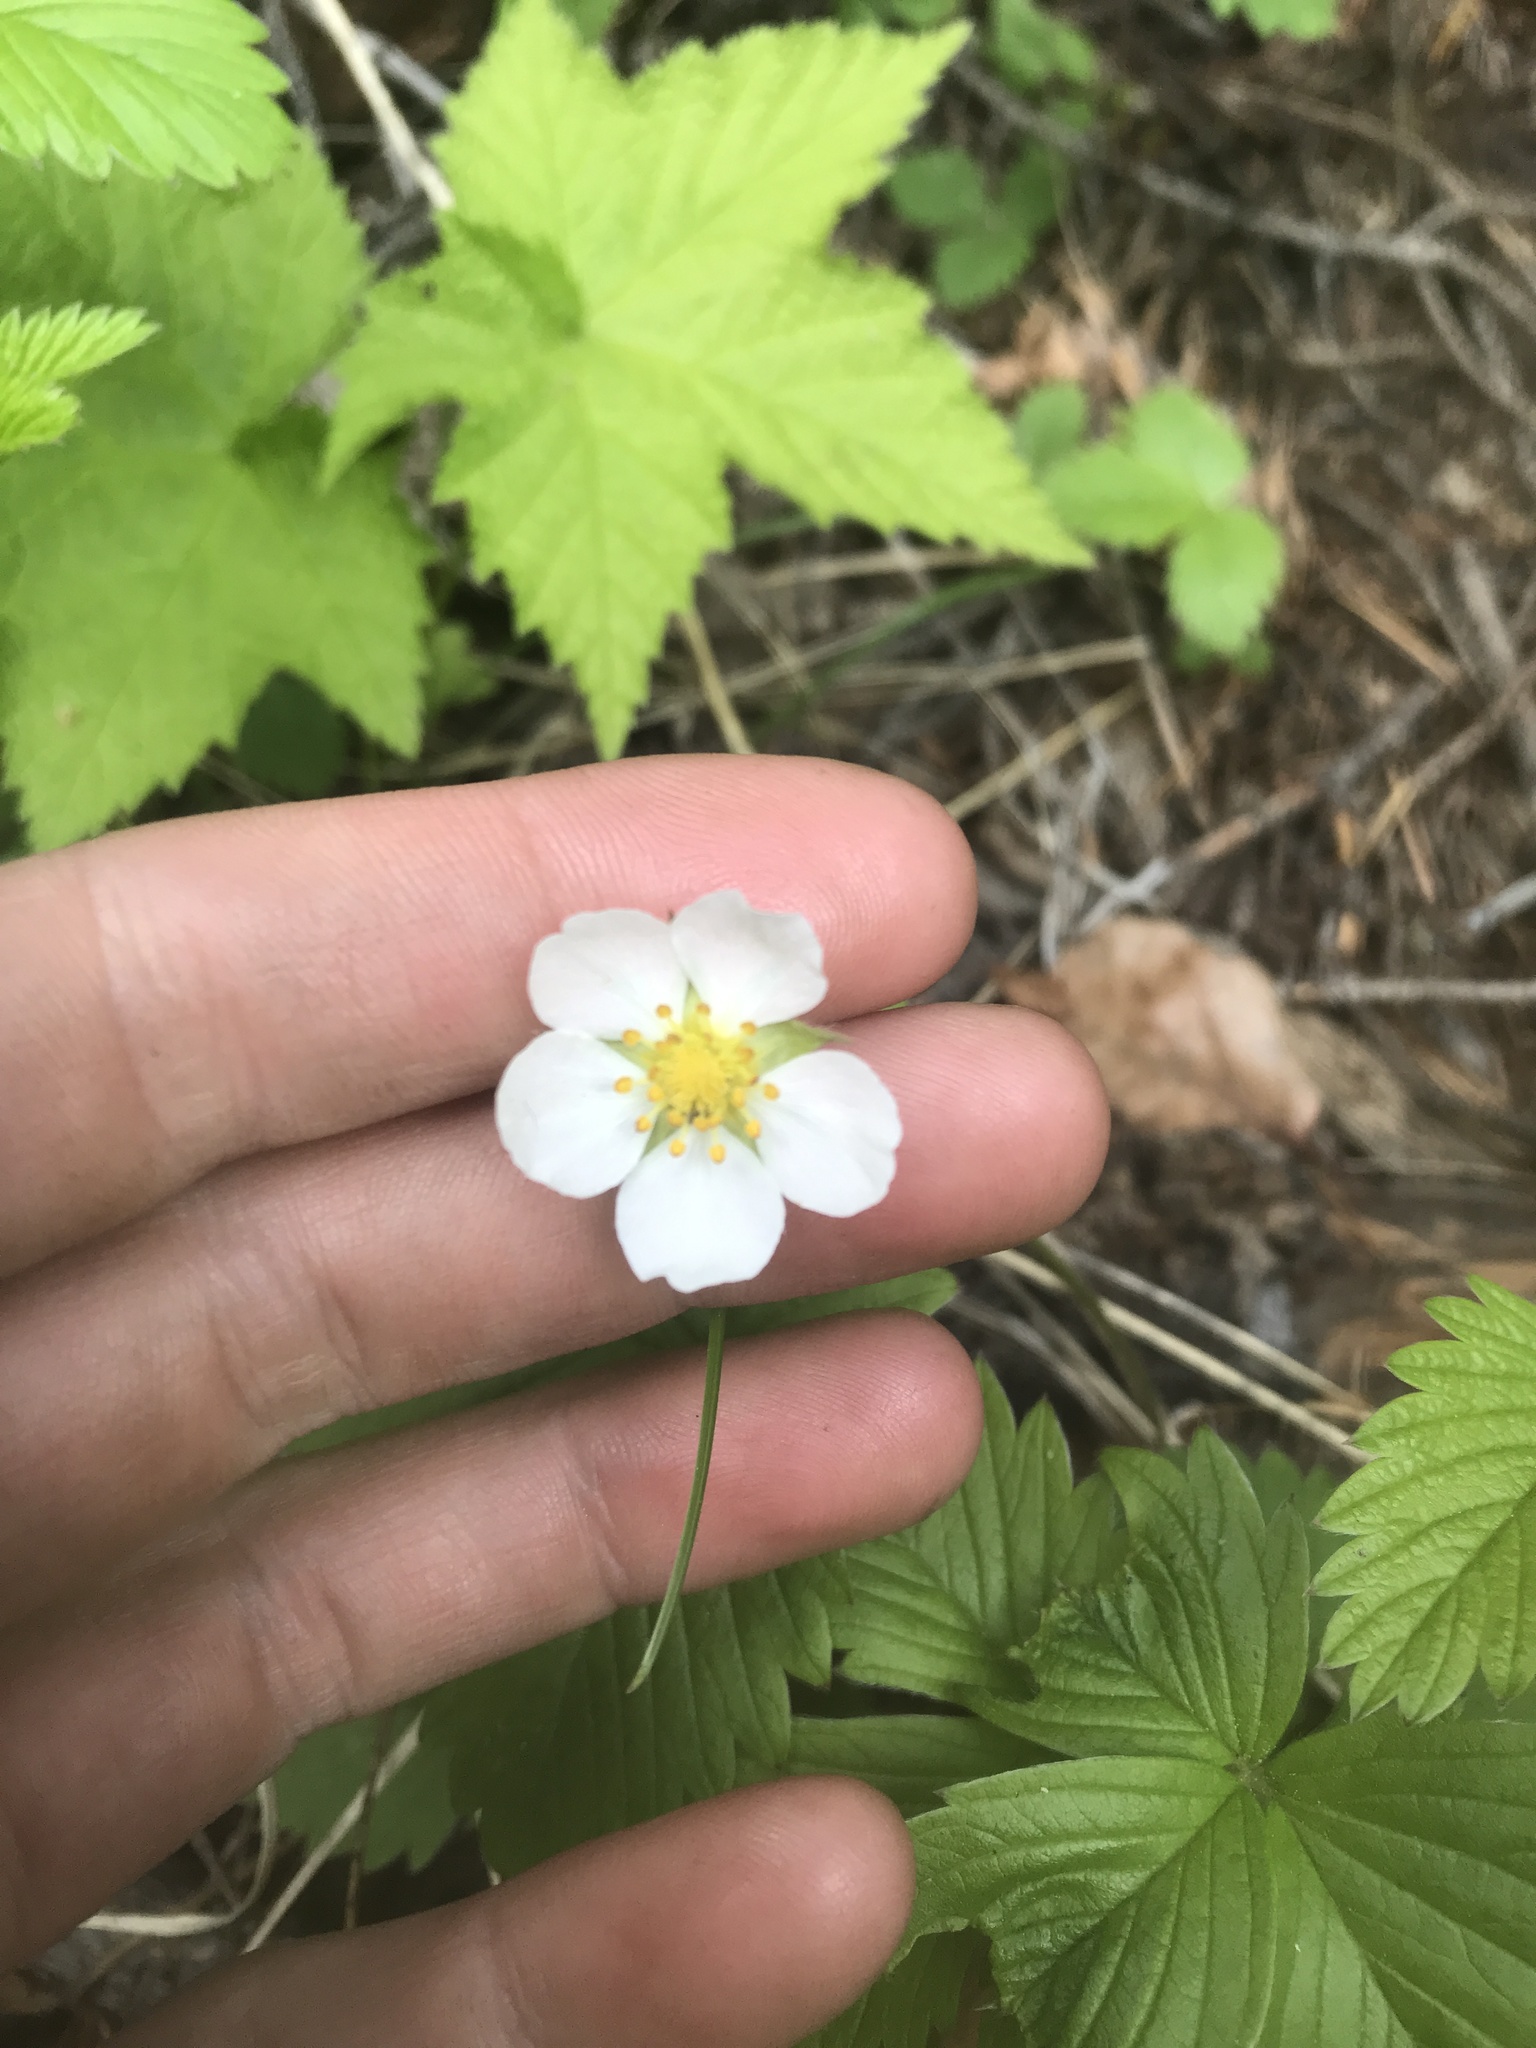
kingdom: Plantae
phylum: Tracheophyta
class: Magnoliopsida
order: Rosales
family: Rosaceae
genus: Fragaria
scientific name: Fragaria vesca
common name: Wild strawberry
